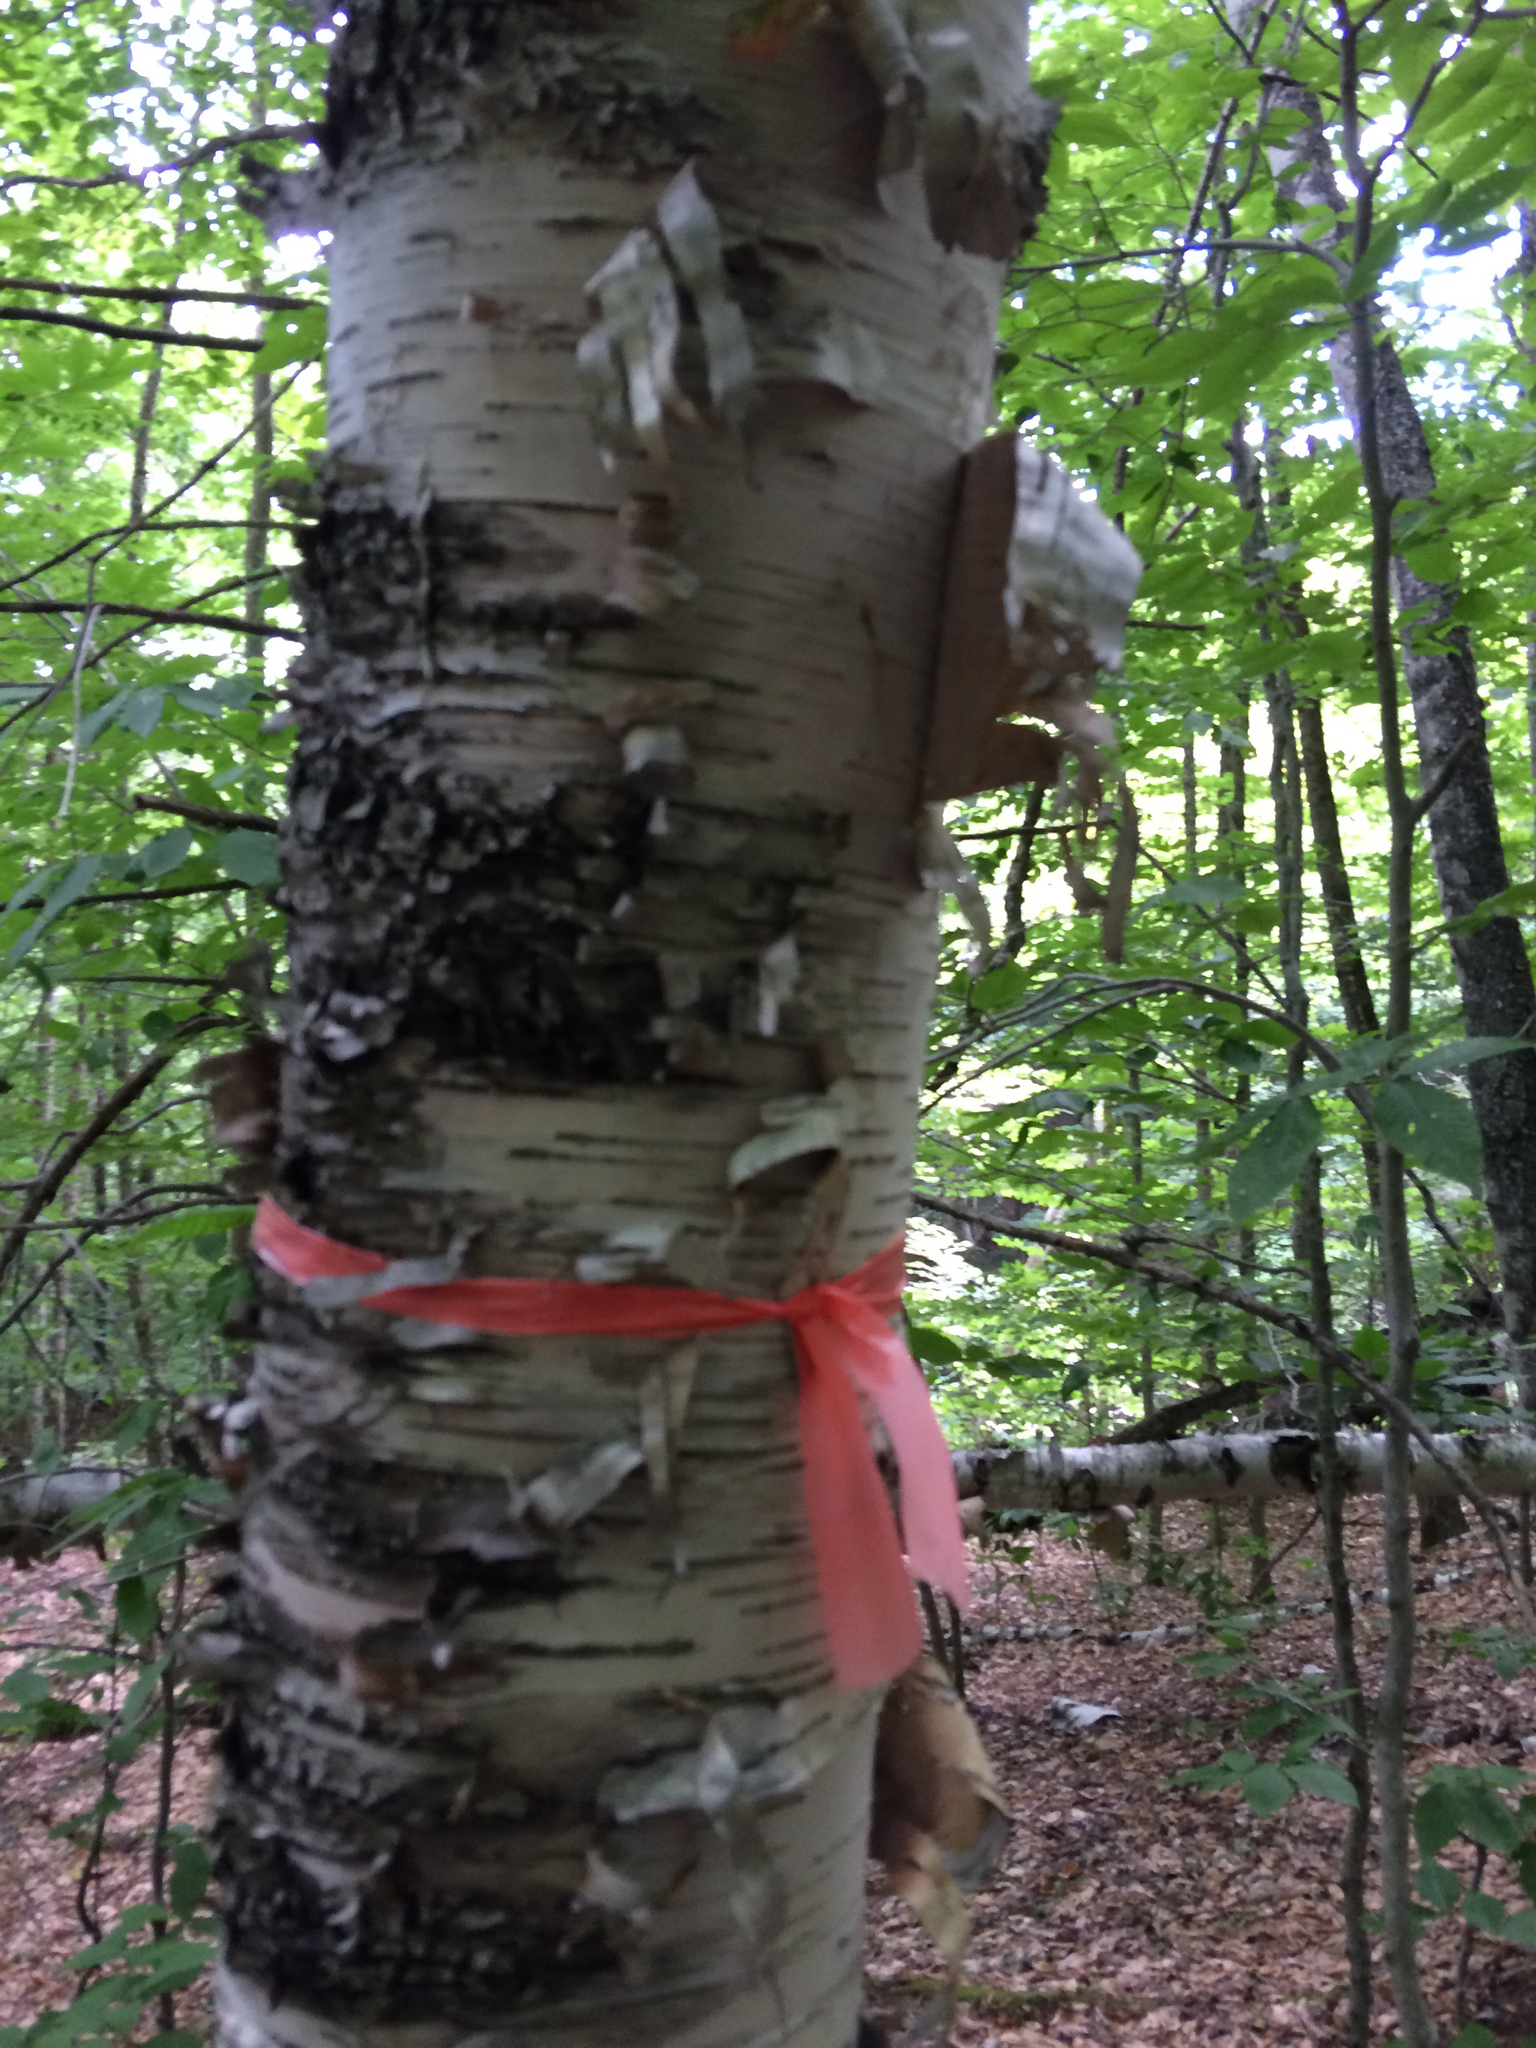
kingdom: Plantae
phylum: Tracheophyta
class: Magnoliopsida
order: Fagales
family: Betulaceae
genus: Betula
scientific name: Betula papyrifera
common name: Paper birch
